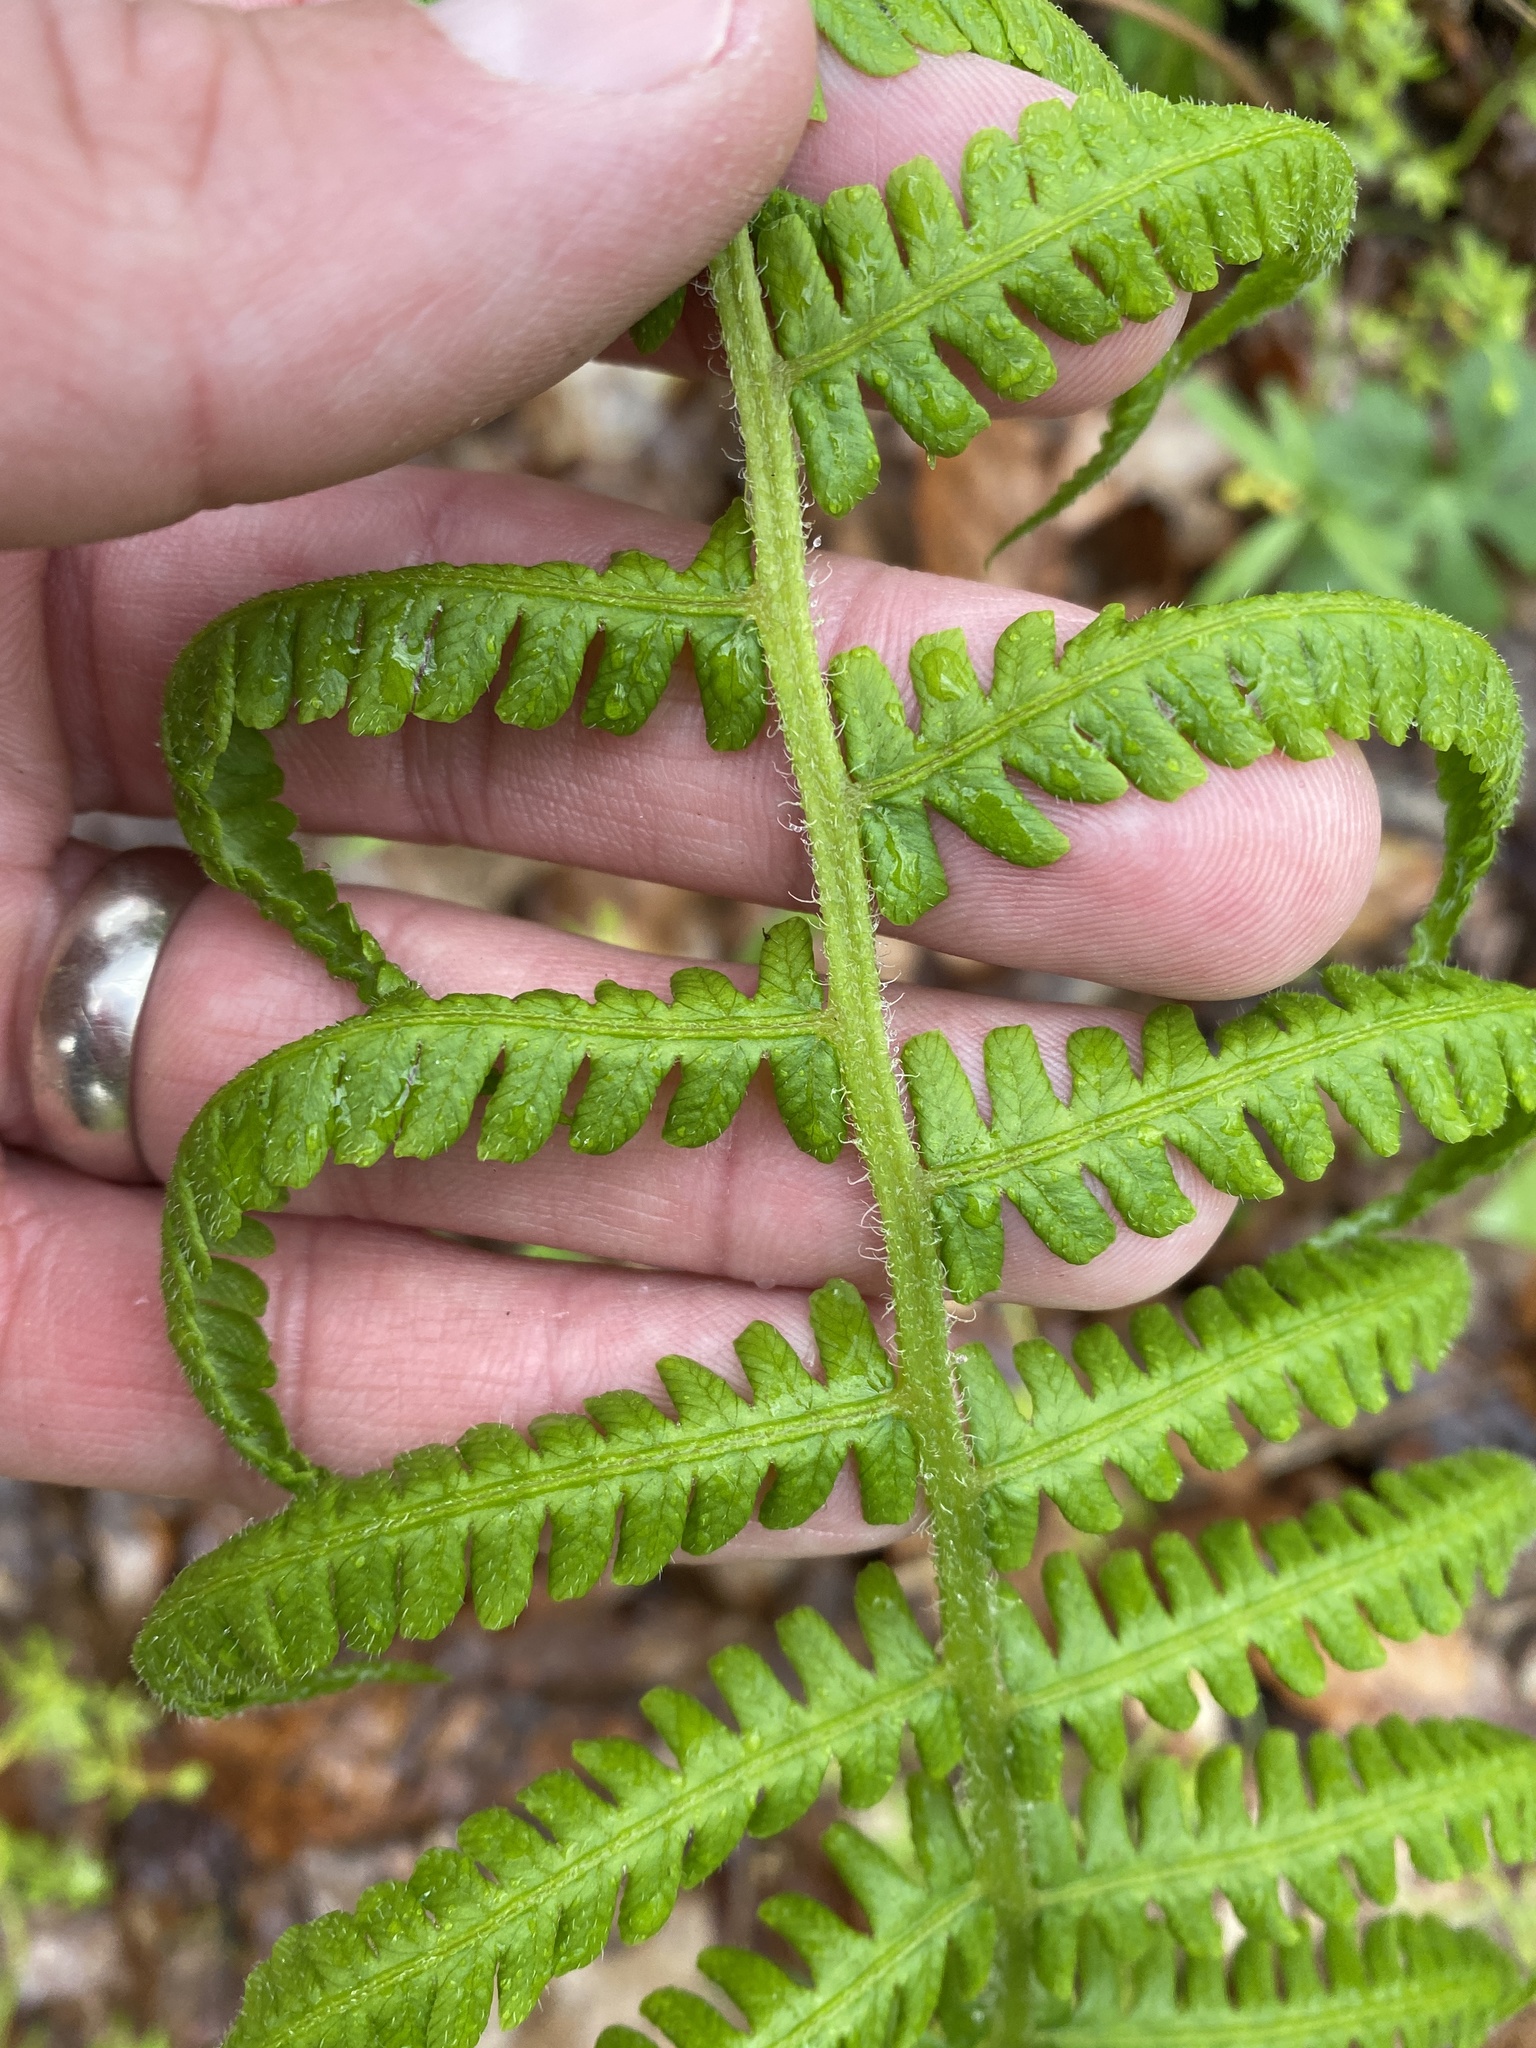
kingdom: Plantae
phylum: Tracheophyta
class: Polypodiopsida
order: Polypodiales
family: Athyriaceae
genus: Deparia
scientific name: Deparia acrostichoides
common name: Silver false spleenwort
